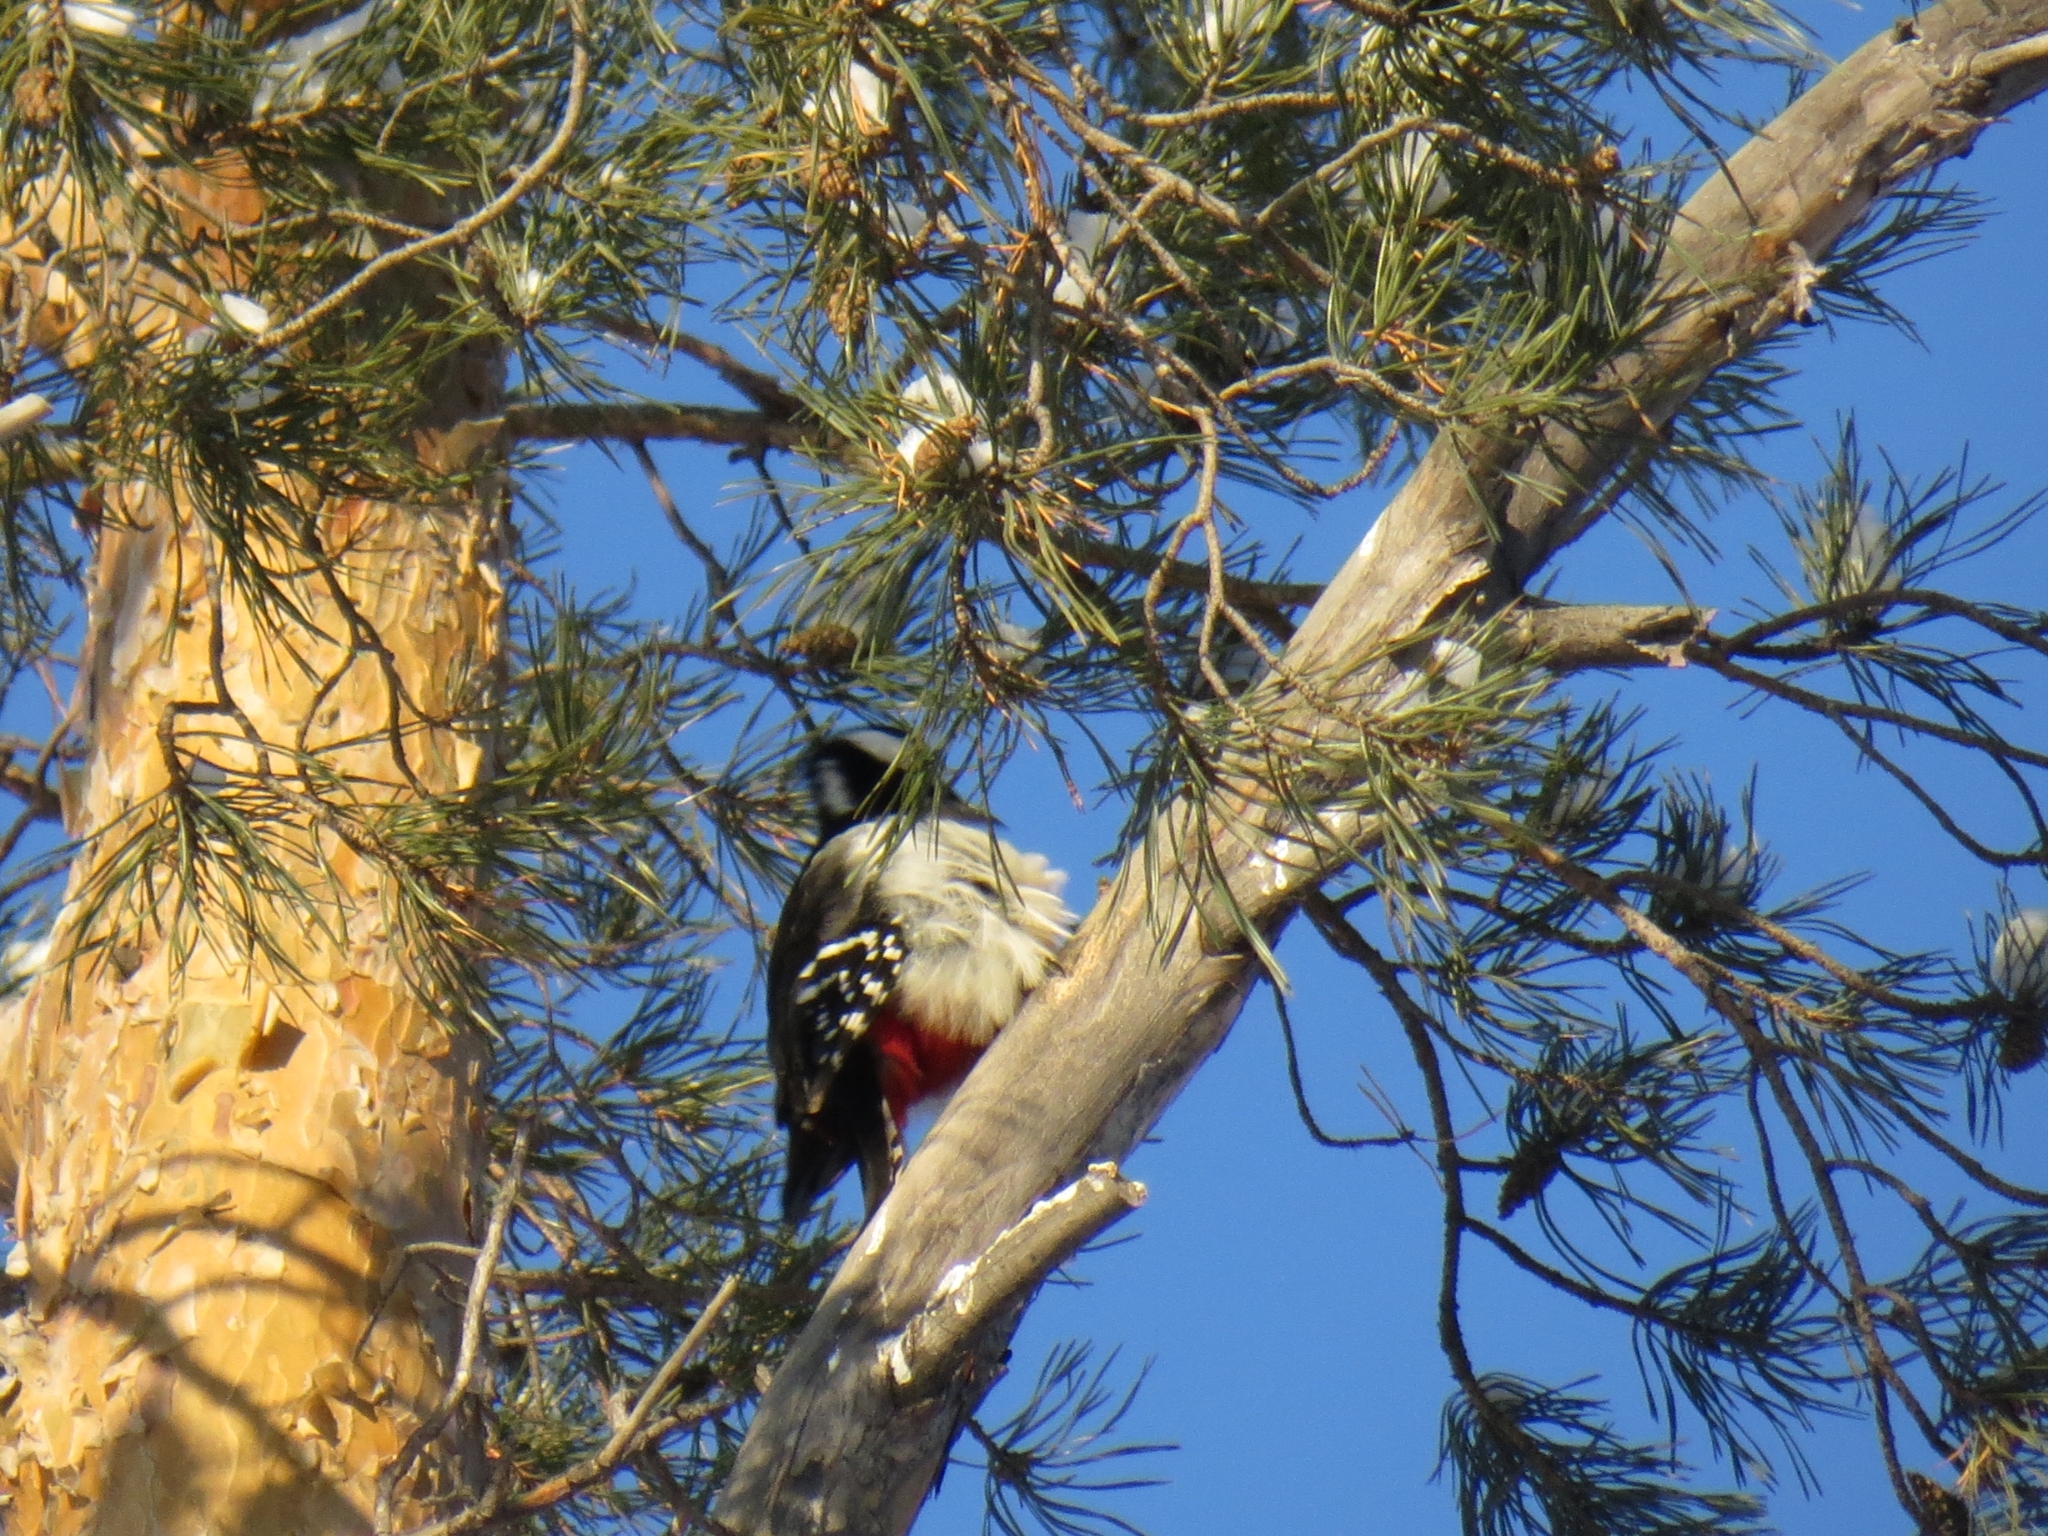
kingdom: Animalia
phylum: Chordata
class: Aves
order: Piciformes
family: Picidae
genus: Dendrocopos
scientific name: Dendrocopos major
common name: Great spotted woodpecker
